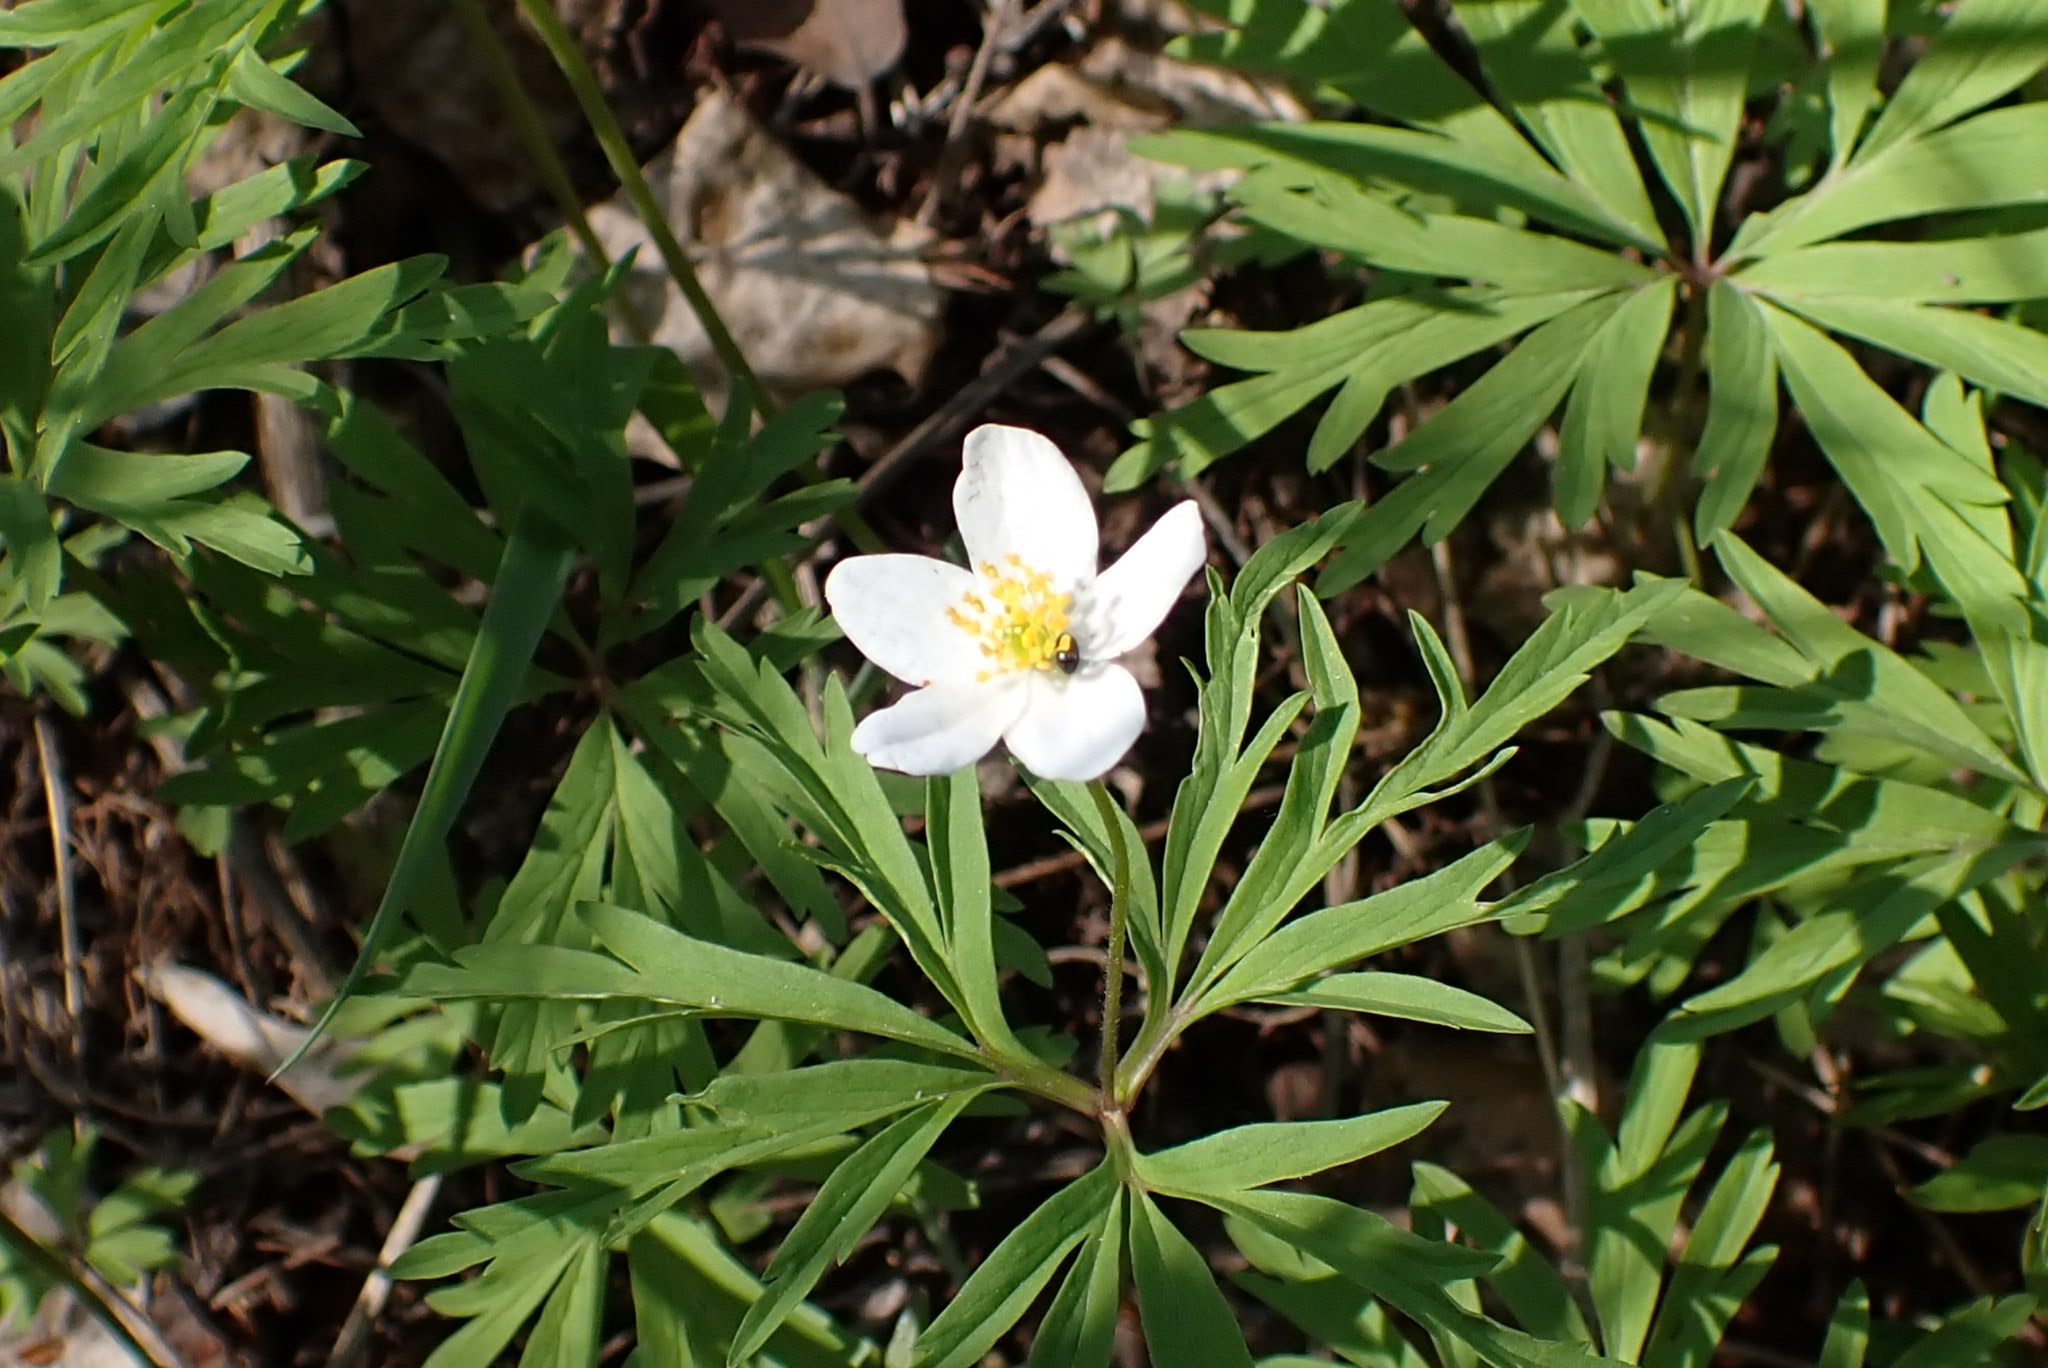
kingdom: Plantae
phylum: Tracheophyta
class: Magnoliopsida
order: Ranunculales
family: Ranunculaceae
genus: Anemone
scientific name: Anemone caerulea
